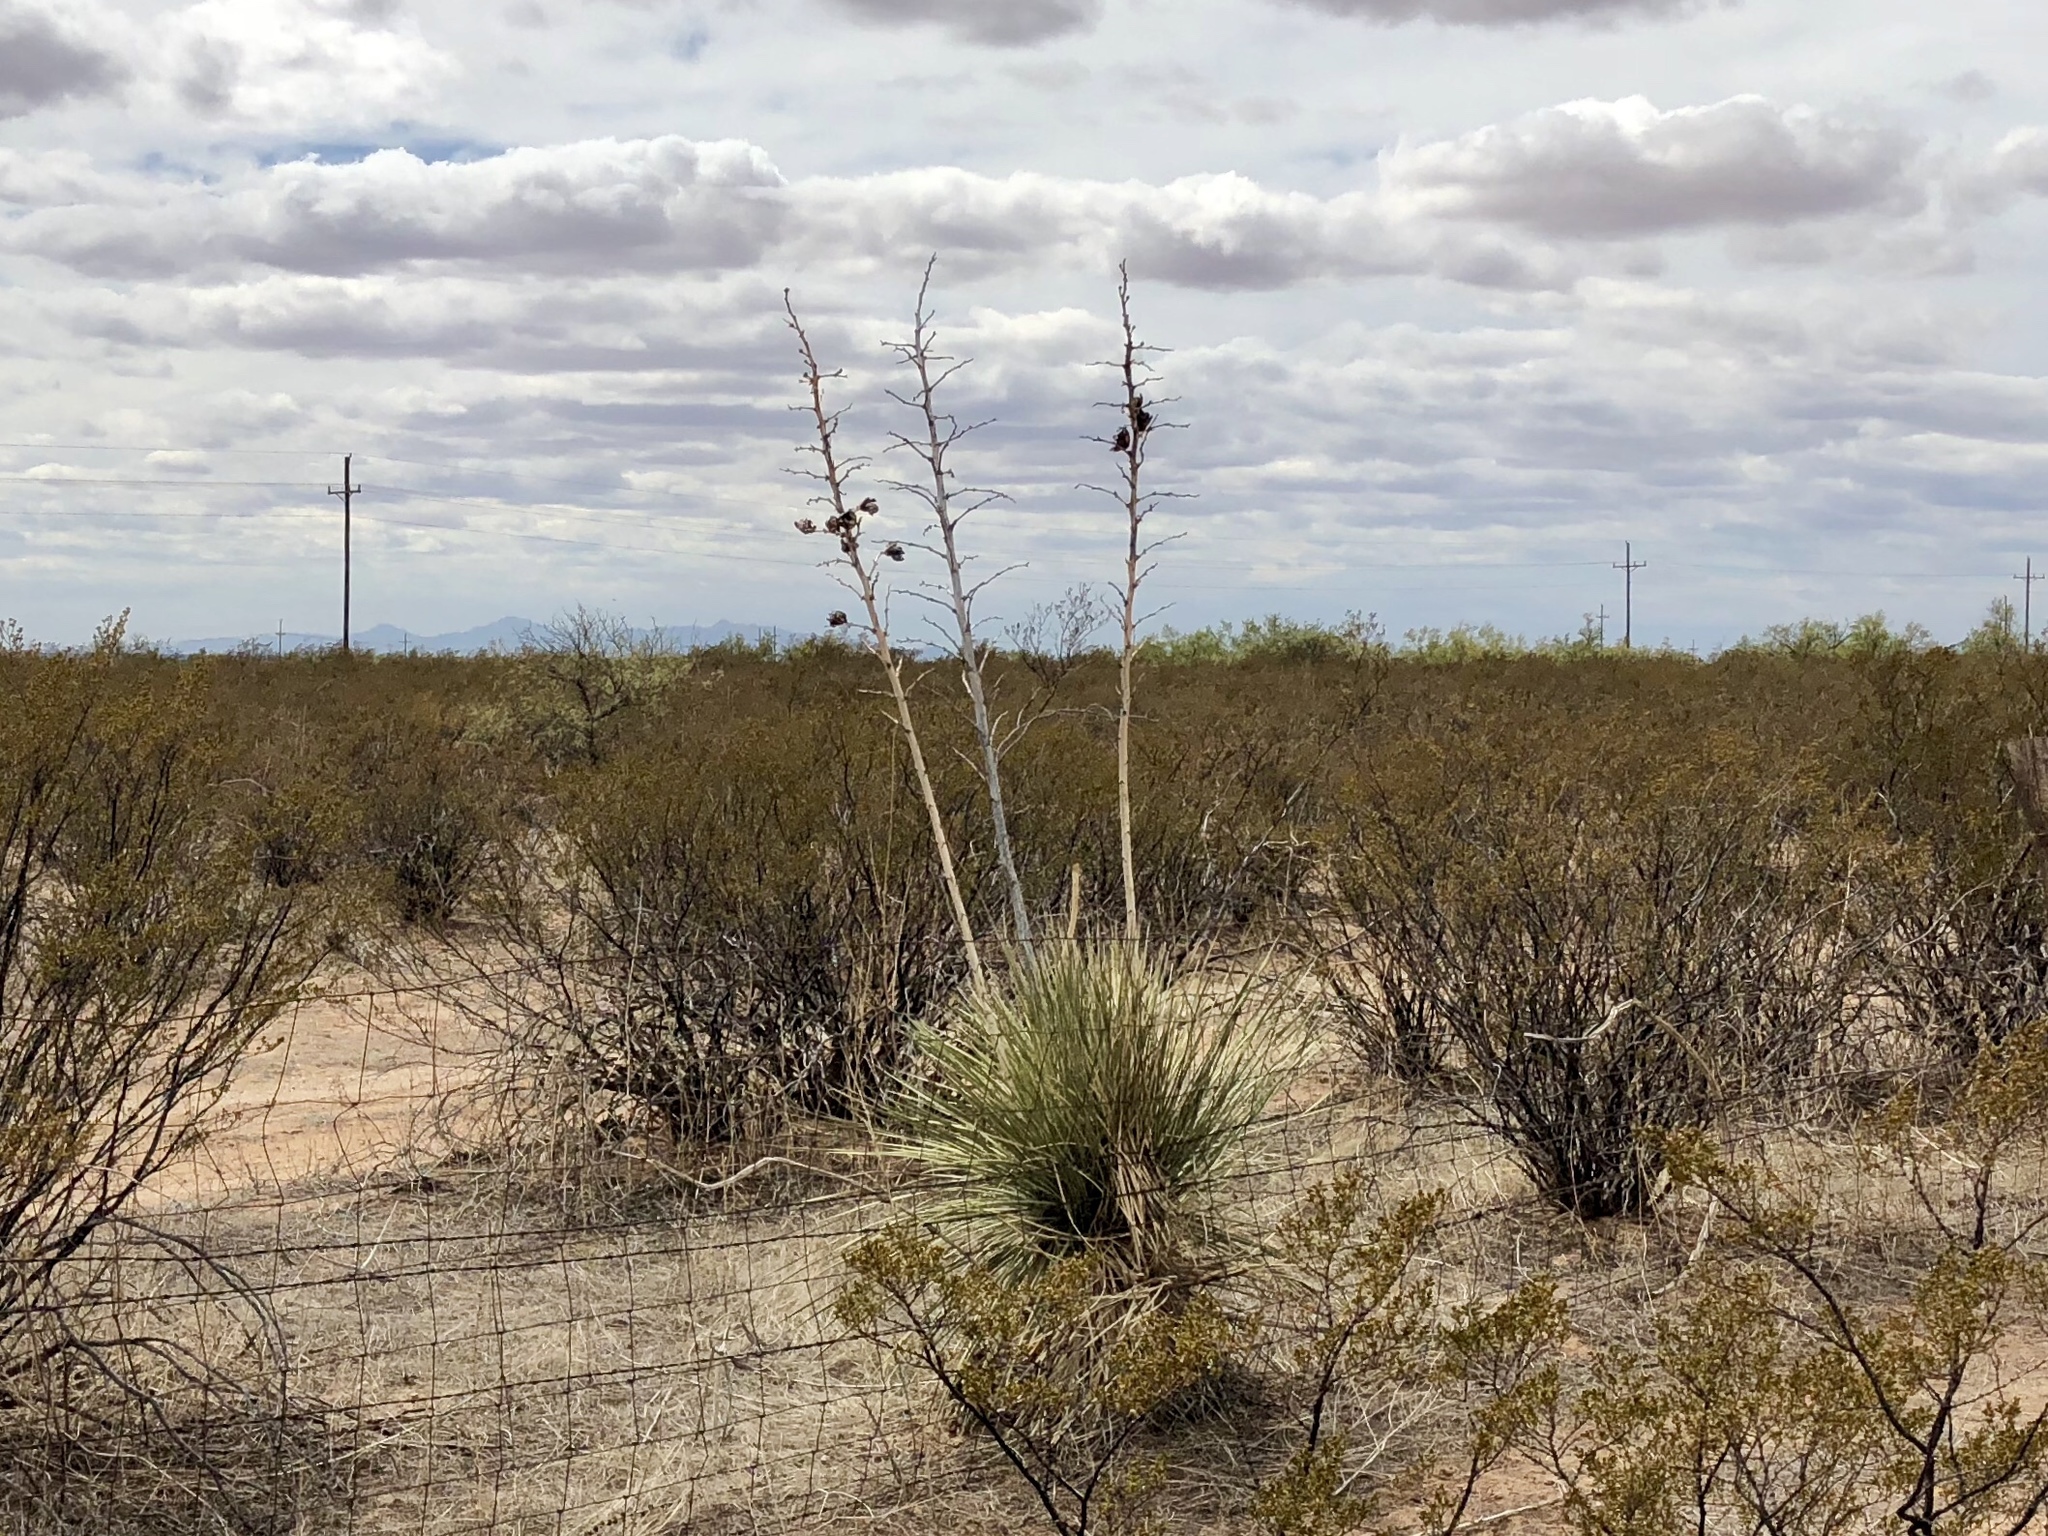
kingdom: Plantae
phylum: Tracheophyta
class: Liliopsida
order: Asparagales
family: Asparagaceae
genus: Yucca
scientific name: Yucca elata
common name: Palmella
